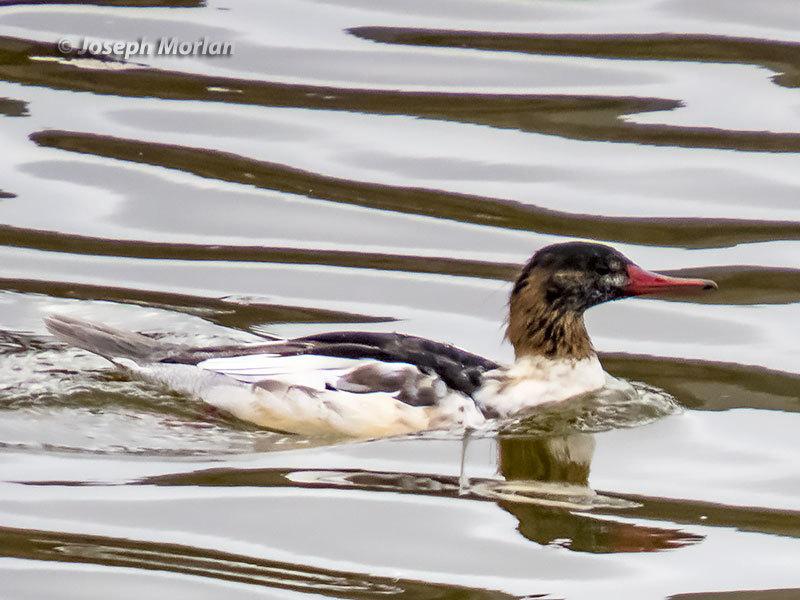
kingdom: Animalia
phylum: Chordata
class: Aves
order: Anseriformes
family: Anatidae
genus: Mergus
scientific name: Mergus merganser
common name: Common merganser
